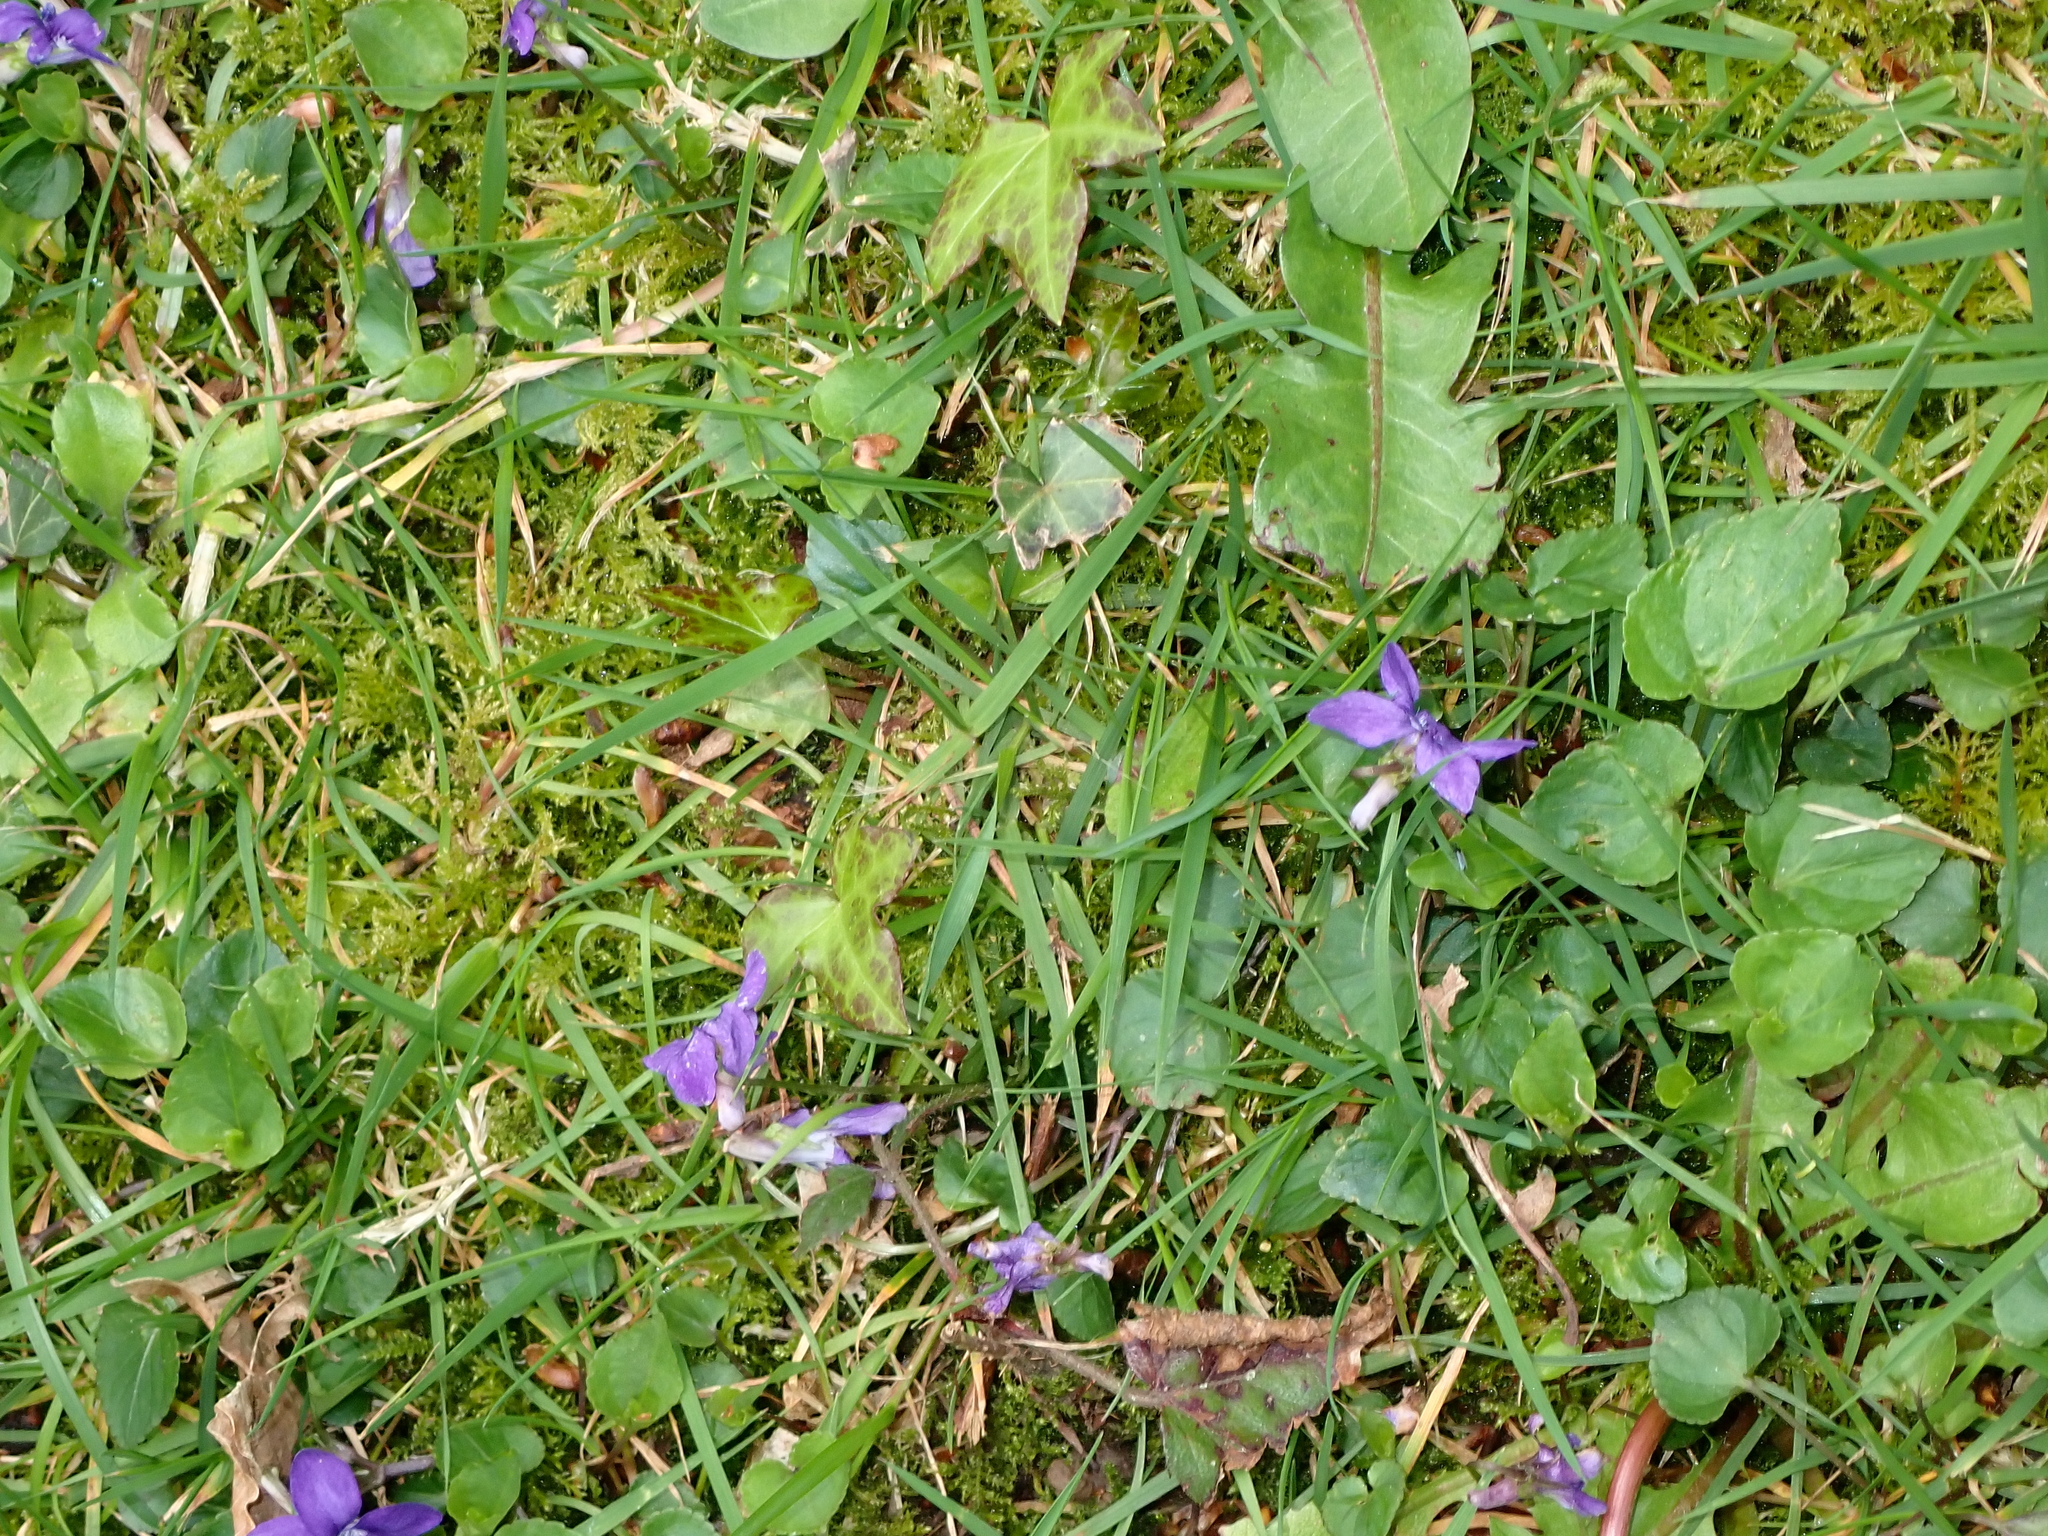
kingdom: Plantae
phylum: Tracheophyta
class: Magnoliopsida
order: Malpighiales
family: Violaceae
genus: Viola
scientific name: Viola riviniana
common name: Common dog-violet
